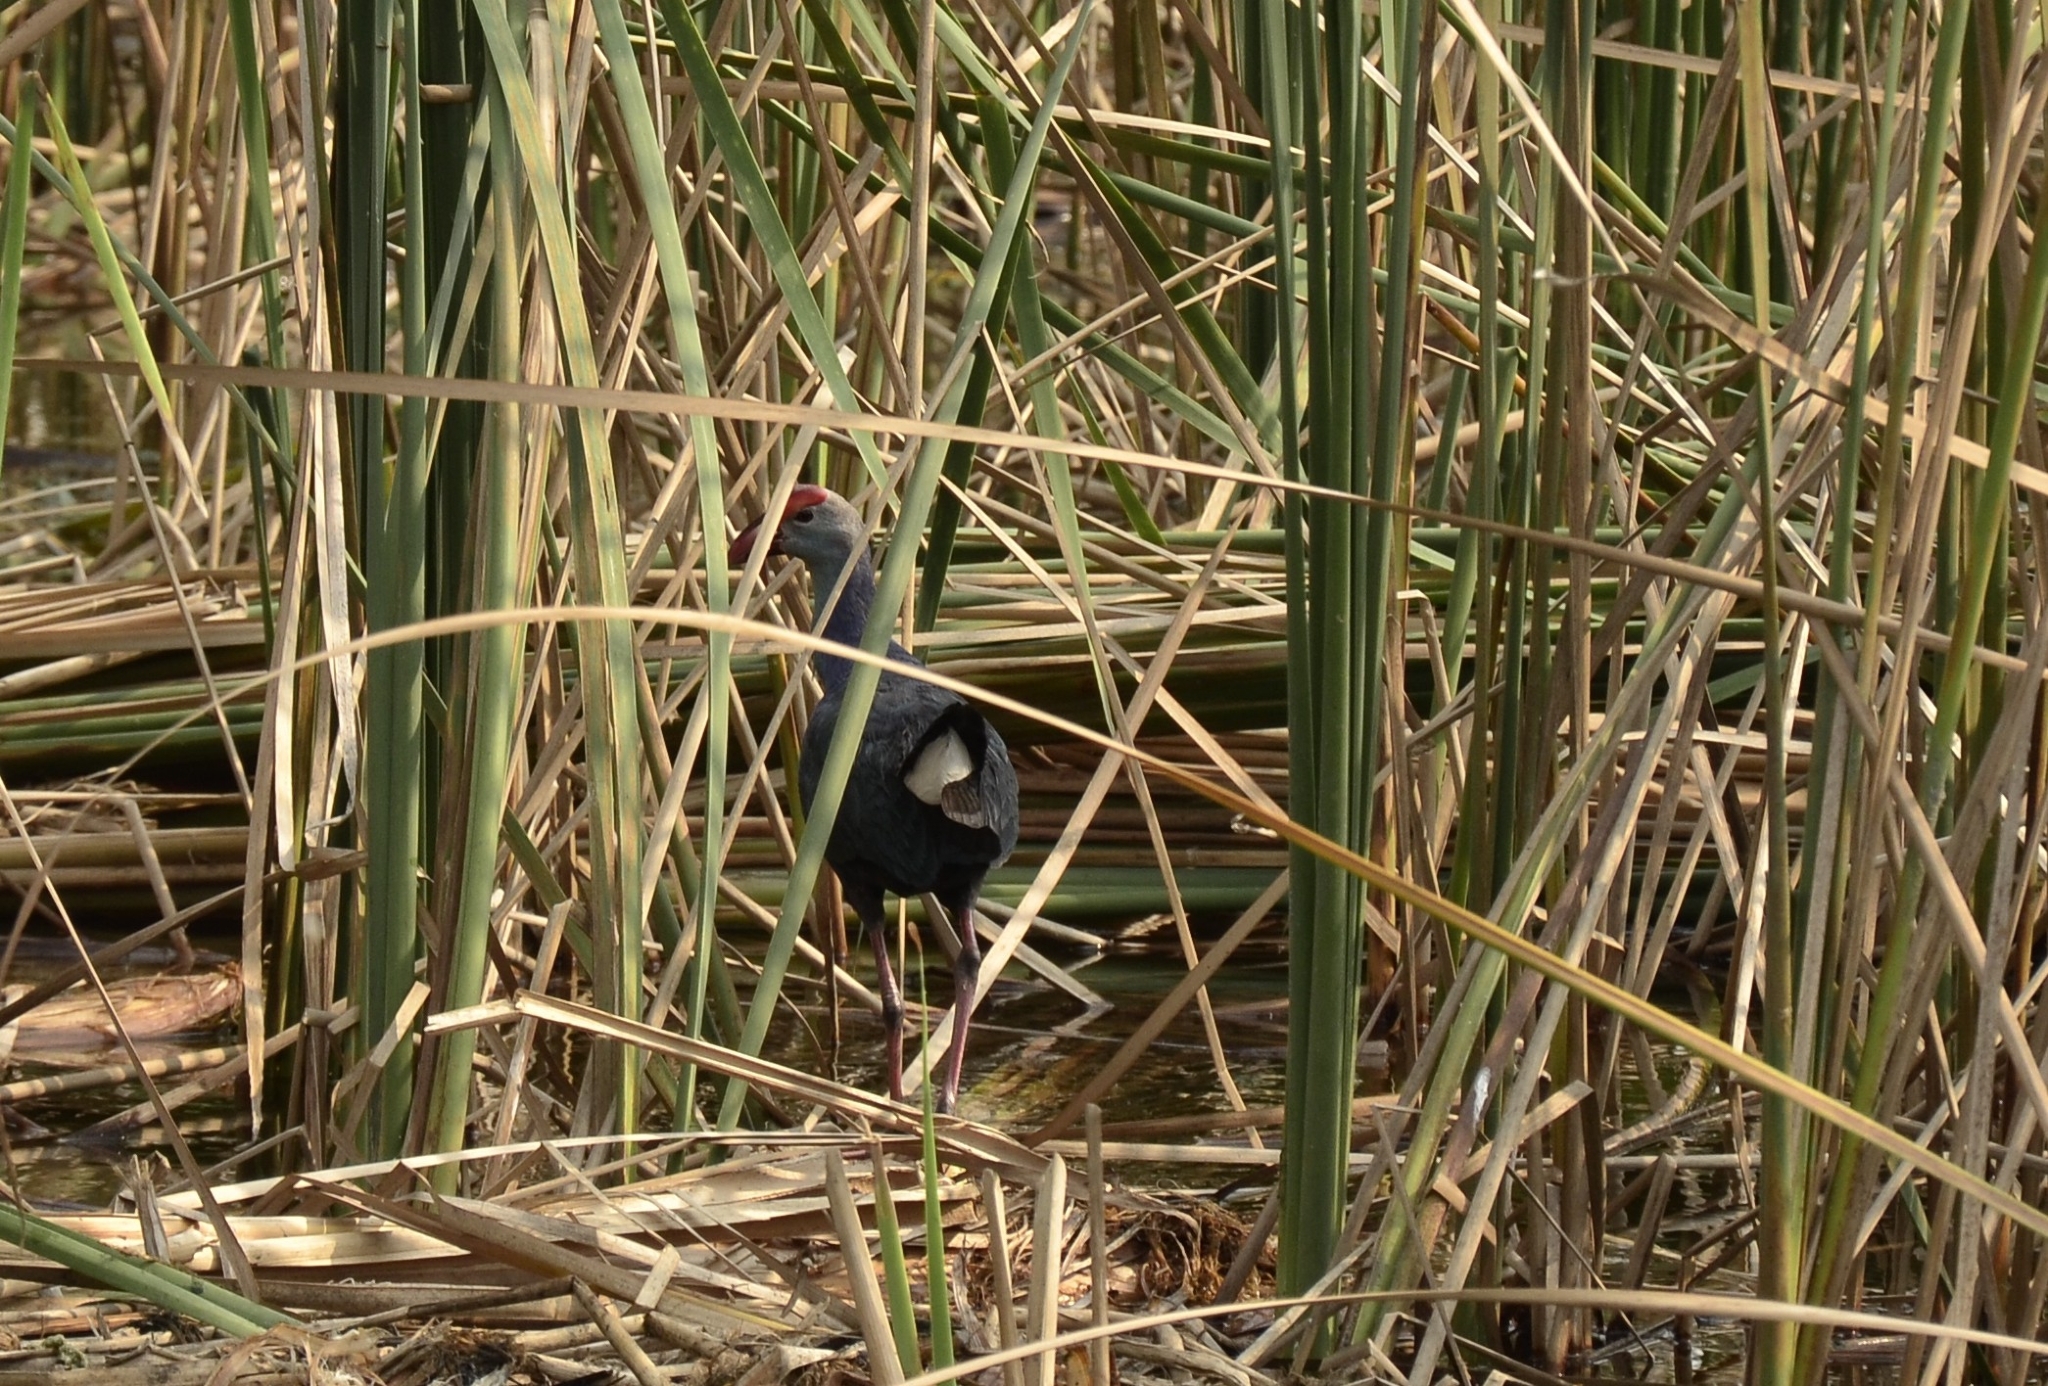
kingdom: Animalia
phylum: Chordata
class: Aves
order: Gruiformes
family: Rallidae
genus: Porphyrio
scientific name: Porphyrio porphyrio
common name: Purple swamphen
